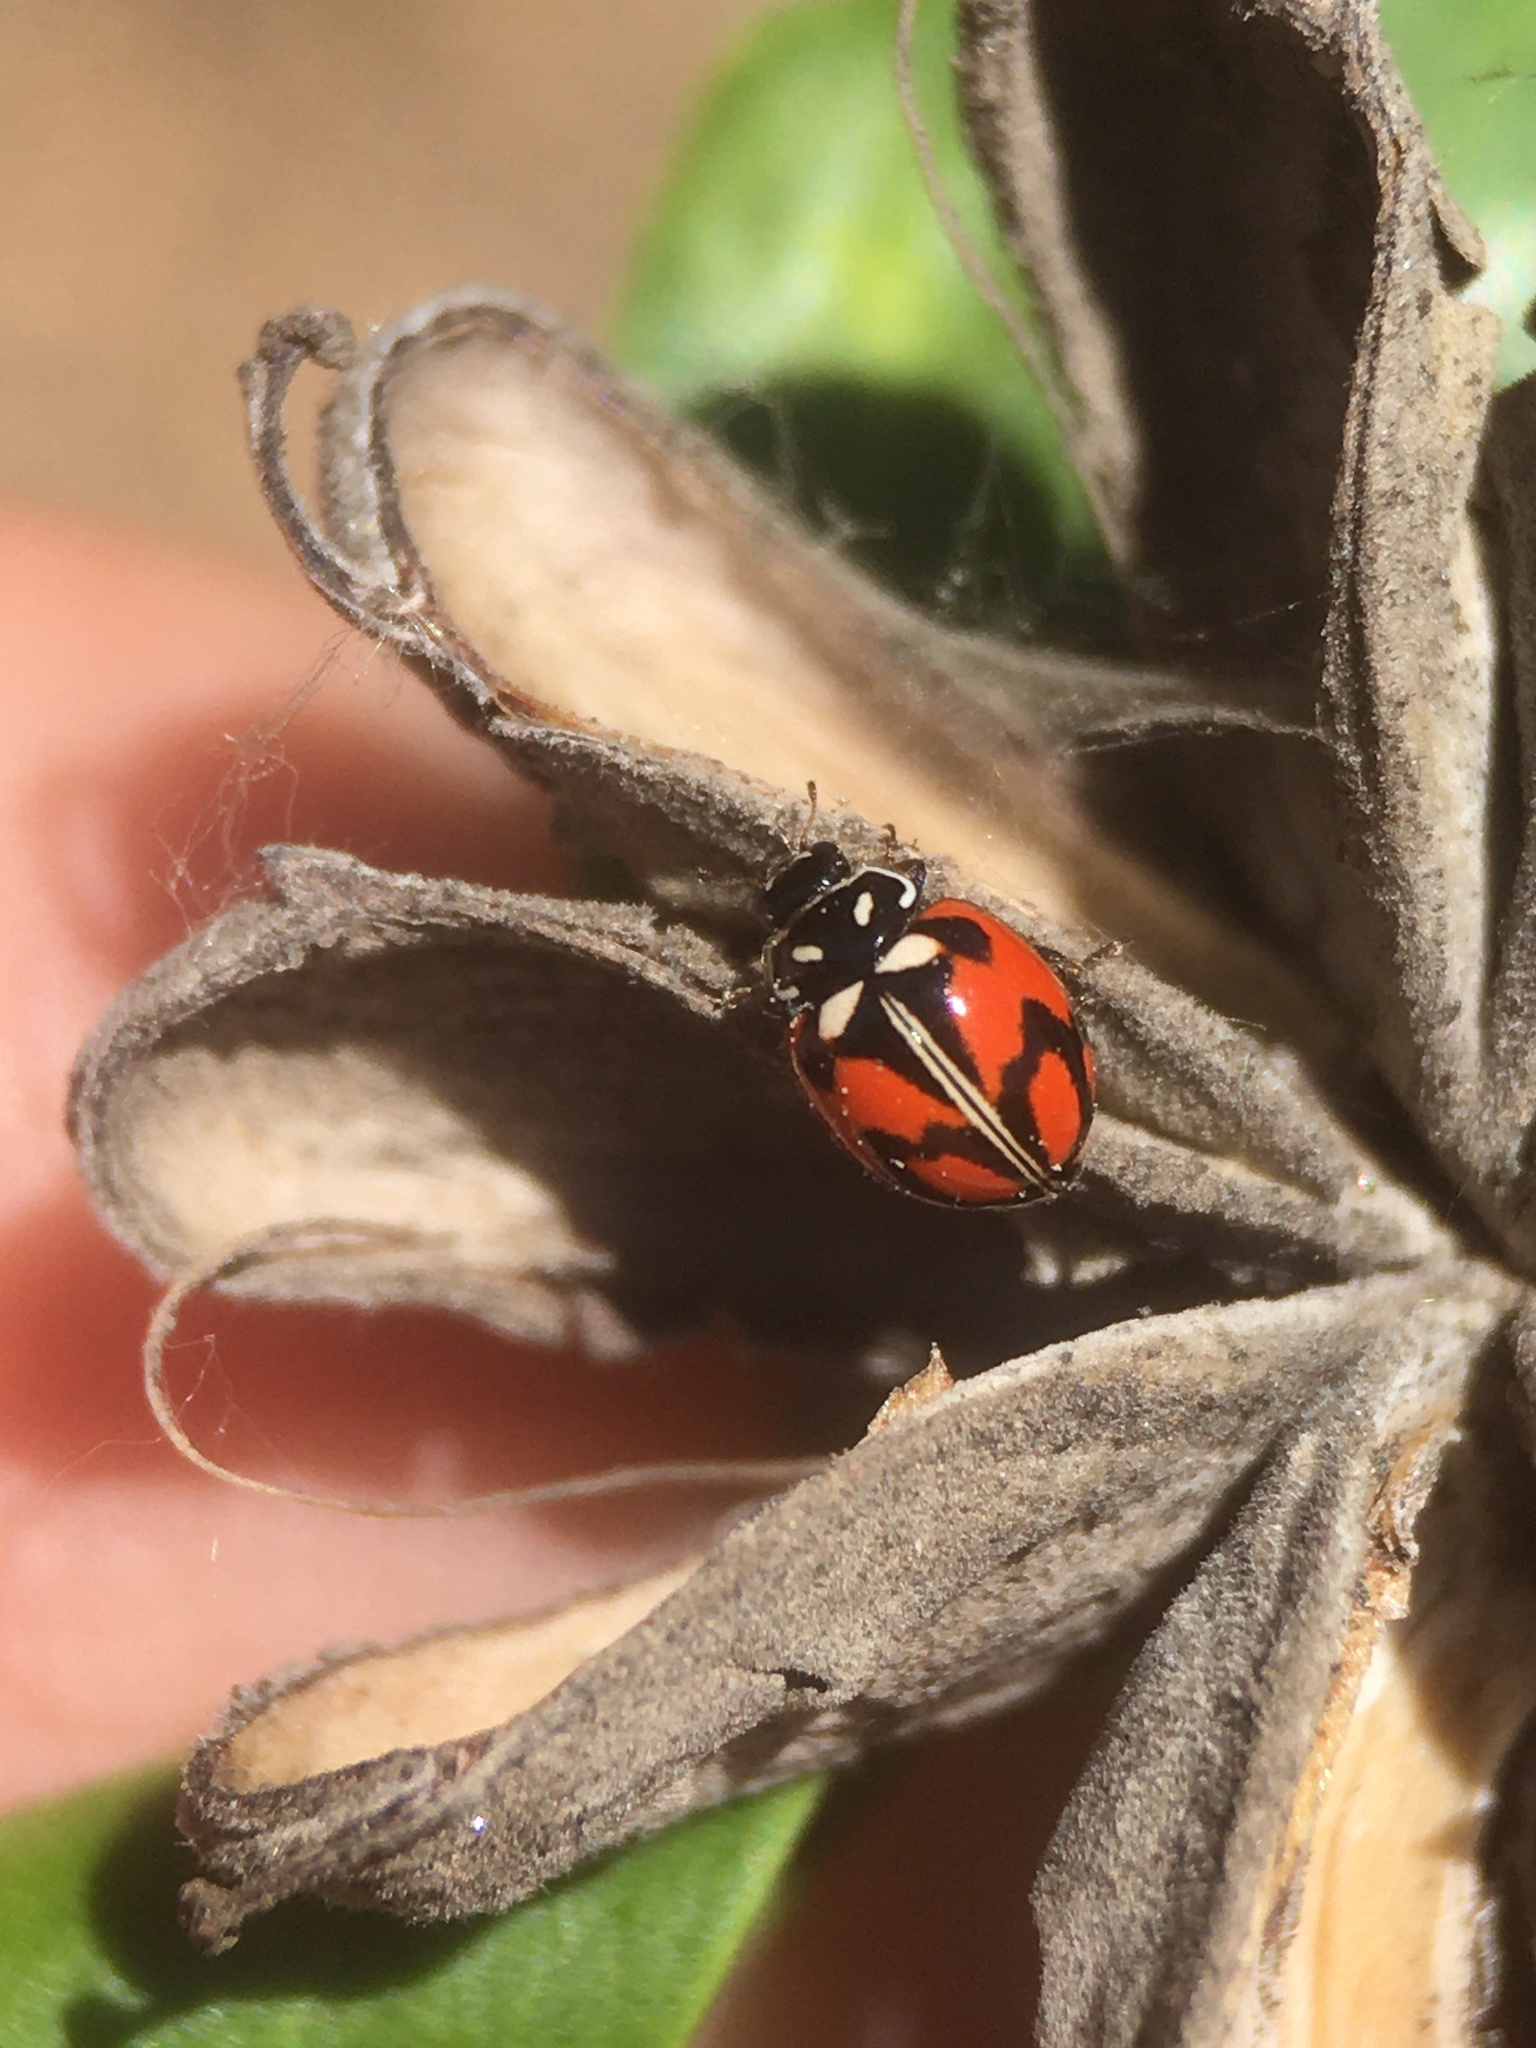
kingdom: Animalia
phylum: Arthropoda
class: Insecta
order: Coleoptera
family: Coccinellidae
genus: Adalia
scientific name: Adalia angulifera
